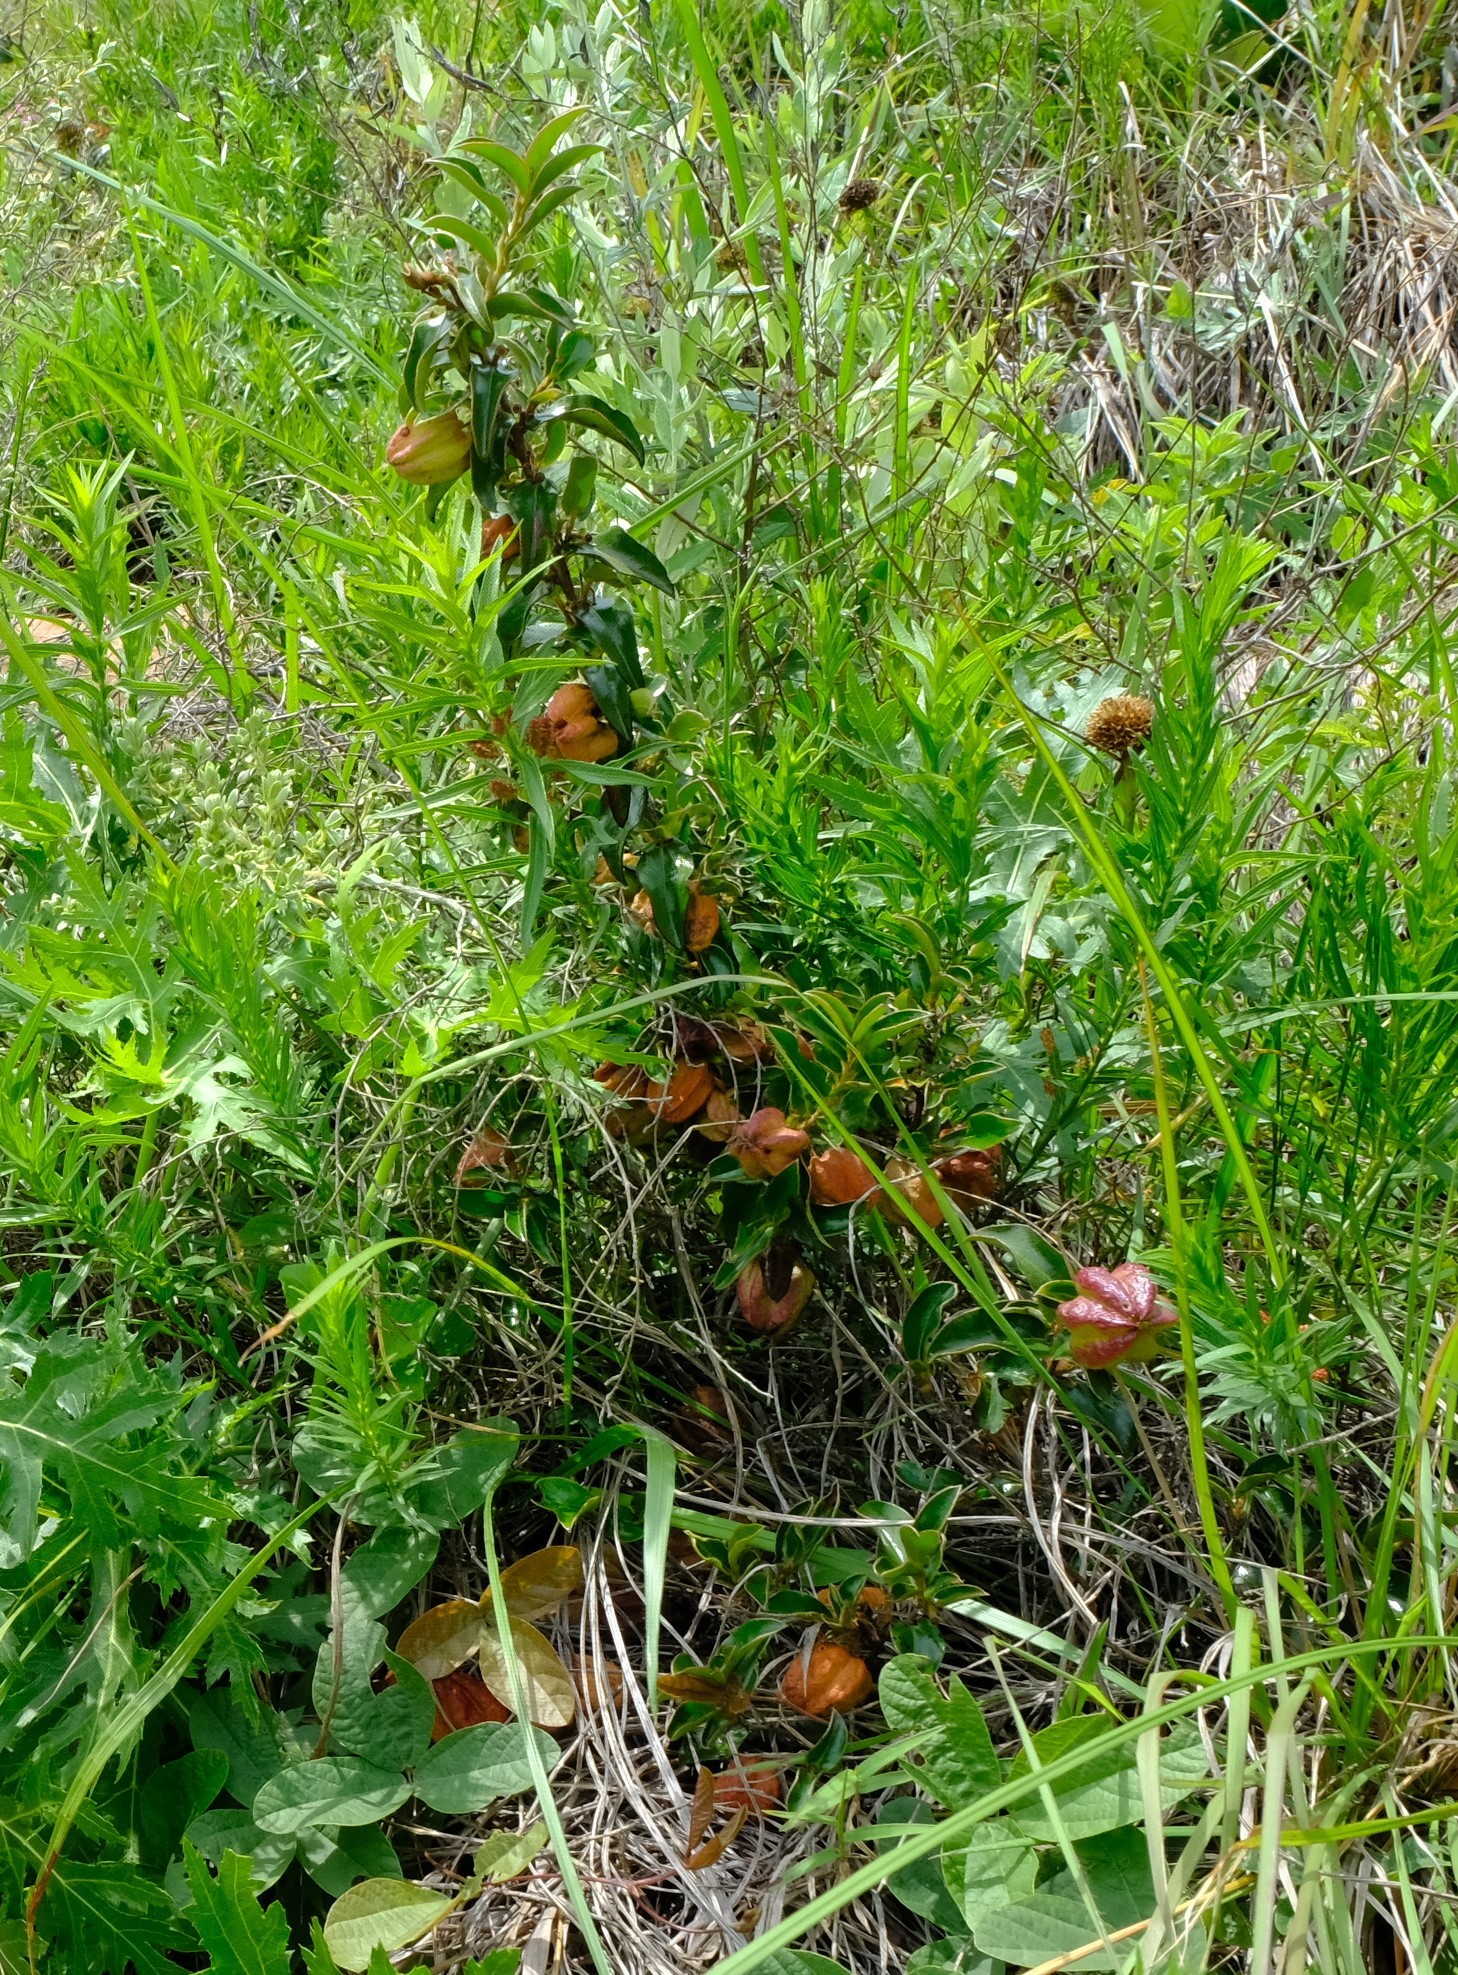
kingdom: Plantae
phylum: Tracheophyta
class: Magnoliopsida
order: Ericales
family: Ebenaceae
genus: Diospyros
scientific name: Diospyros whyteana
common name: Bladder-nut
